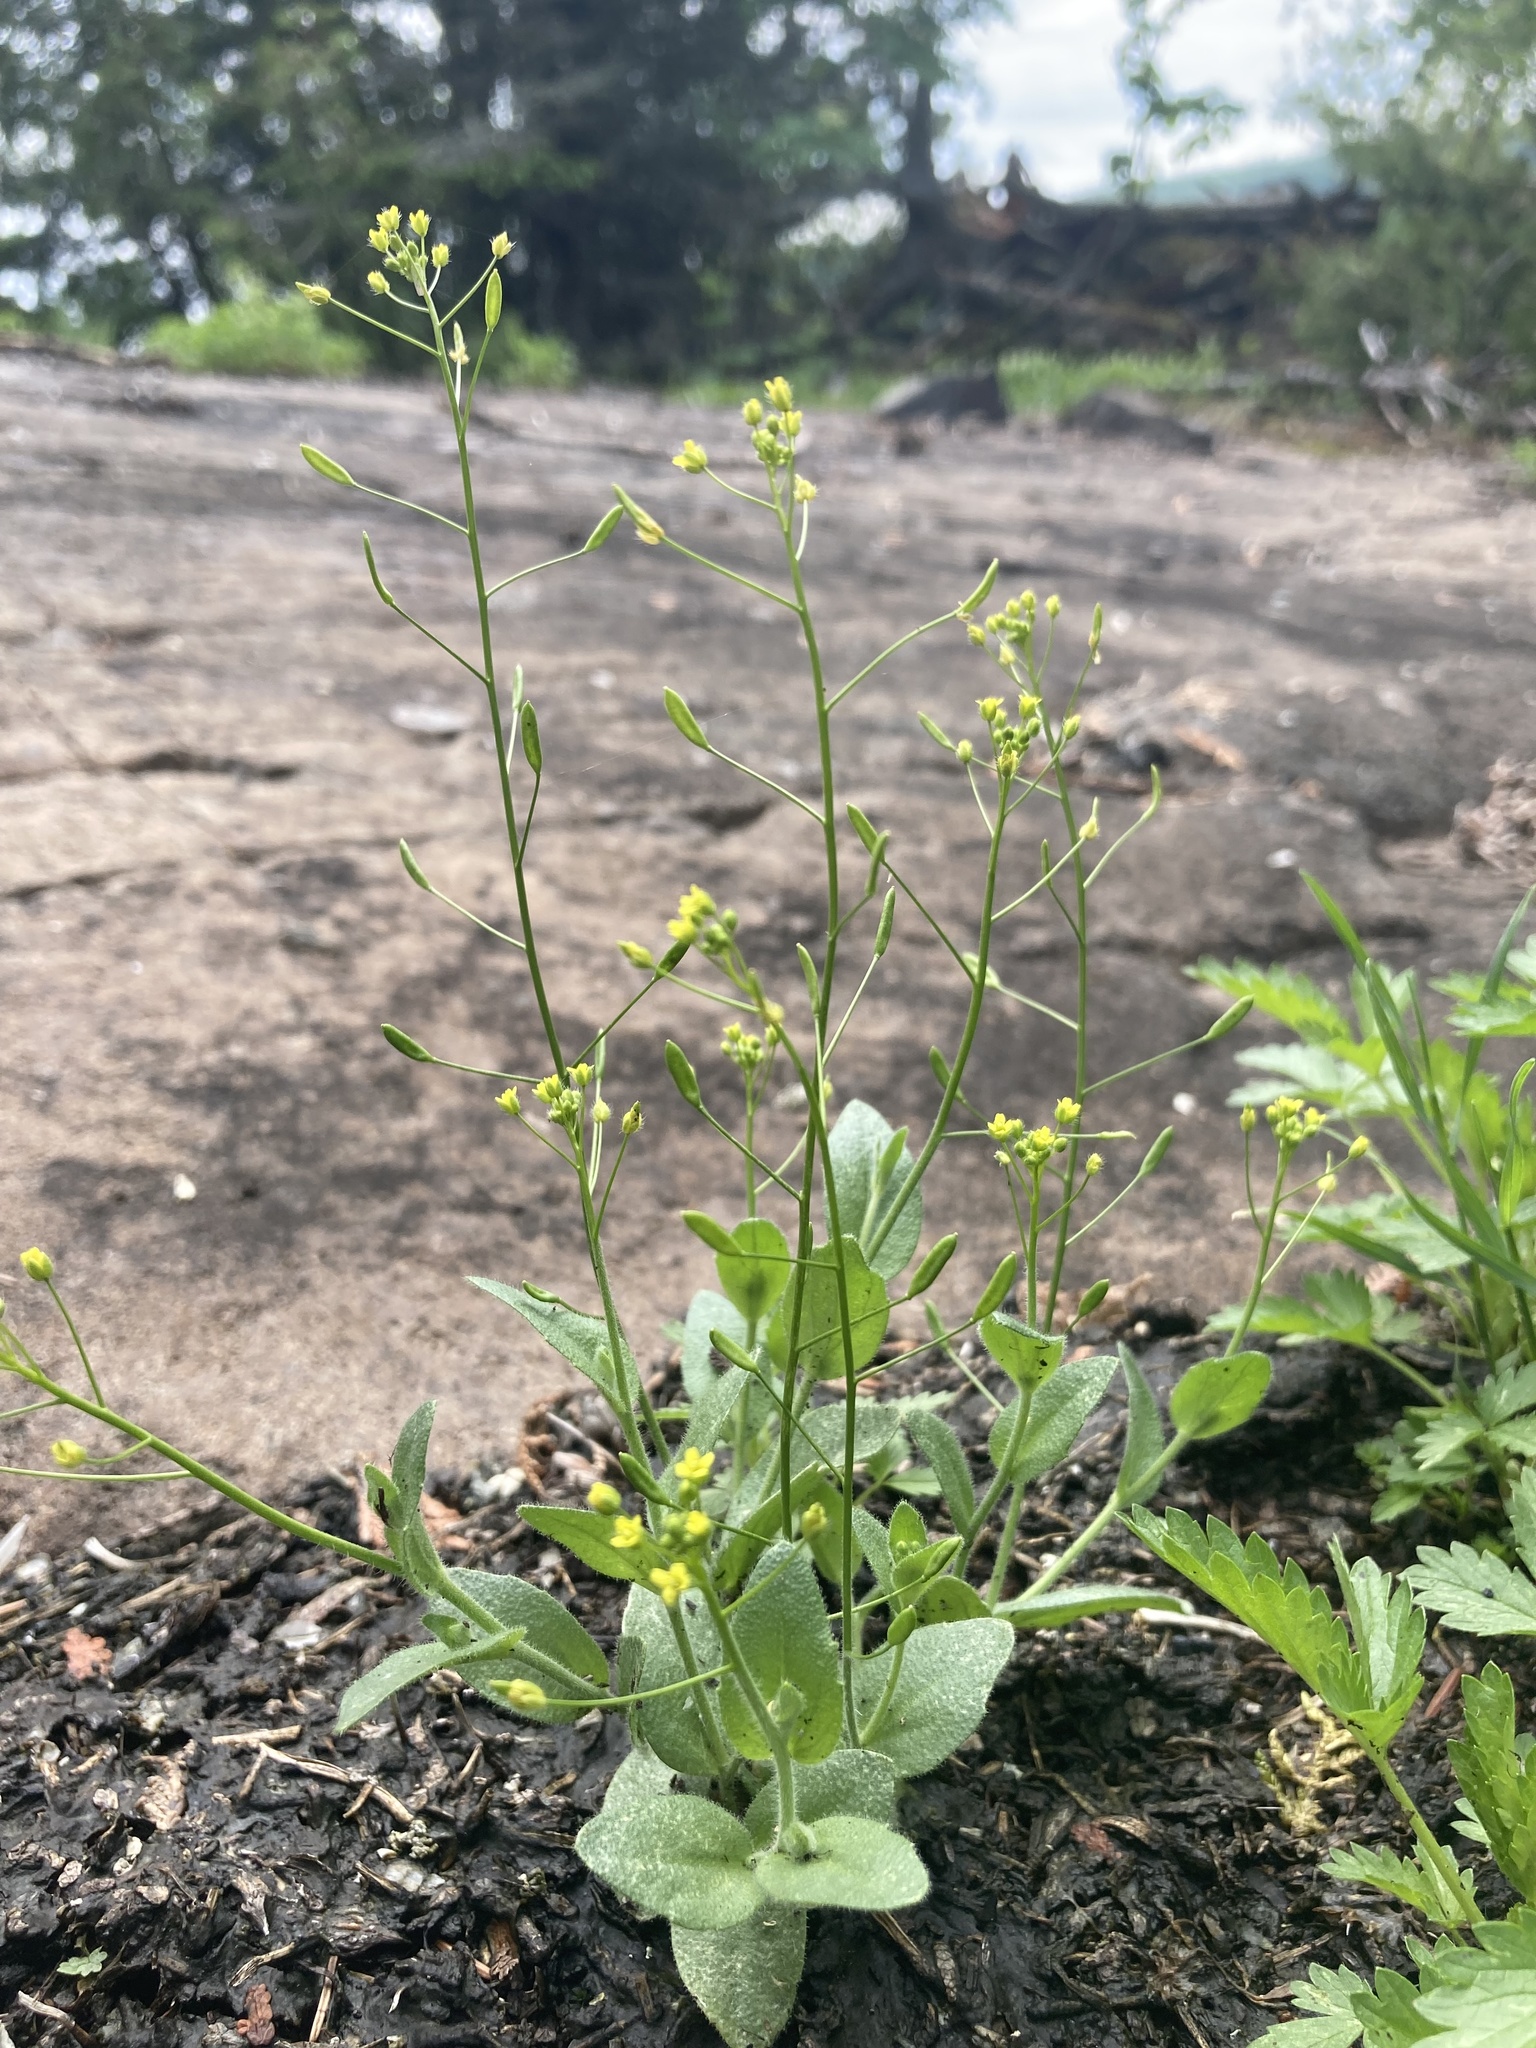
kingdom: Plantae
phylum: Tracheophyta
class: Magnoliopsida
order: Brassicales
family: Brassicaceae
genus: Draba
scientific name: Draba nemorosa
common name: Wood whitlow-grass
